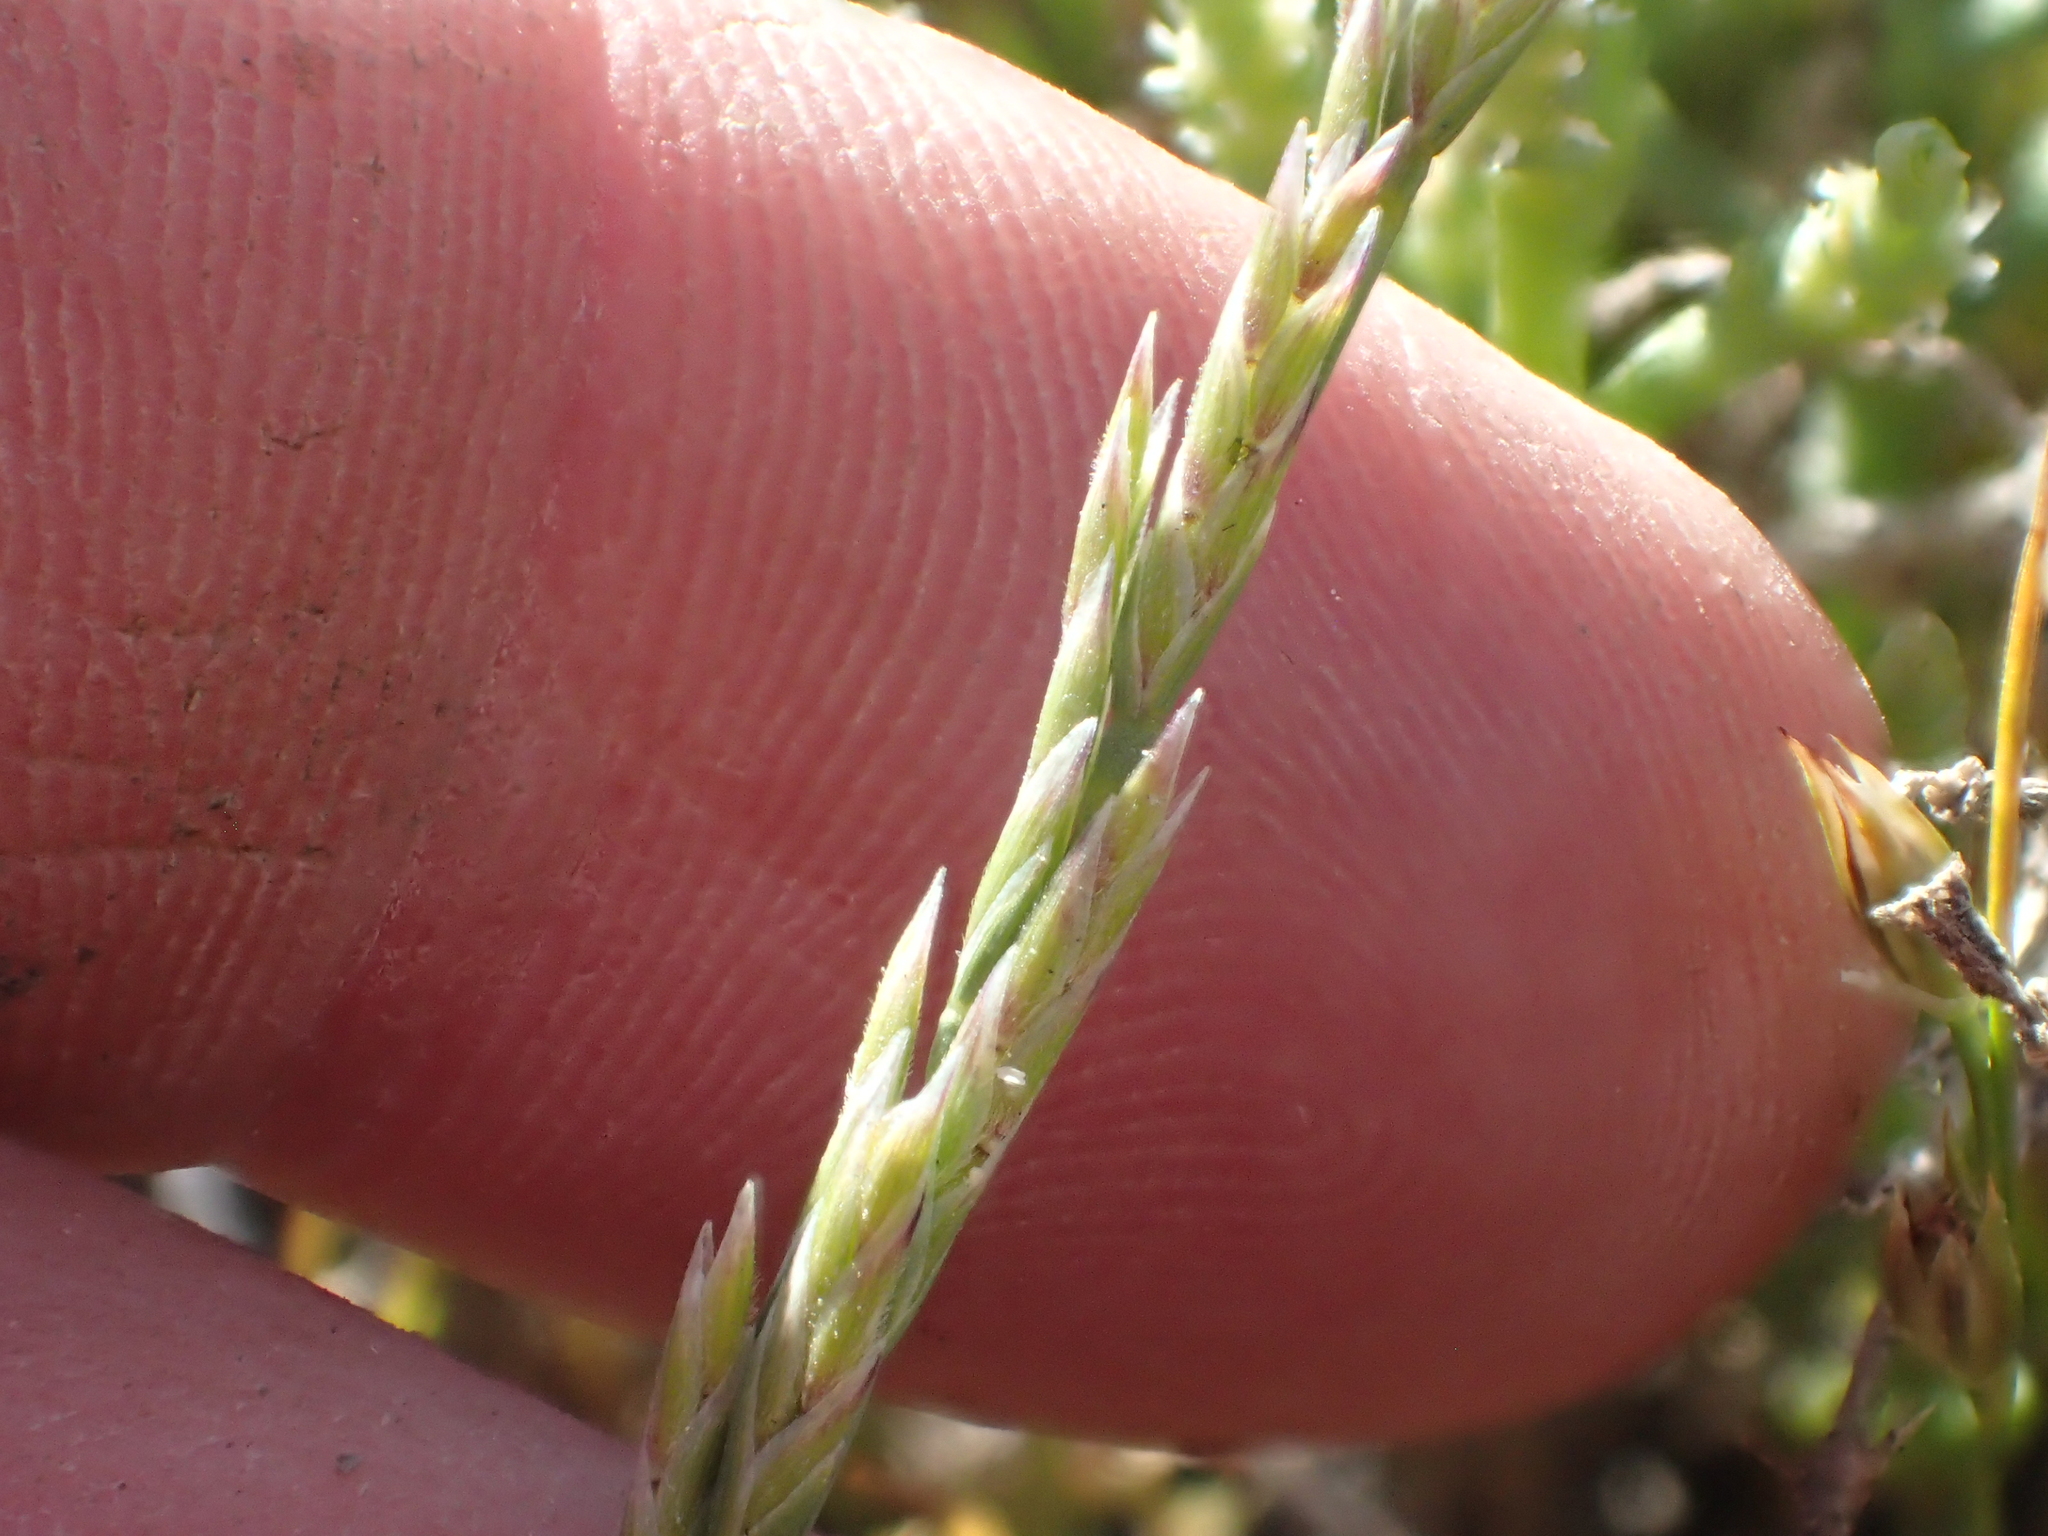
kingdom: Plantae
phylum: Tracheophyta
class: Liliopsida
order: Poales
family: Poaceae
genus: Puccinellia
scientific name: Puccinellia simplex
